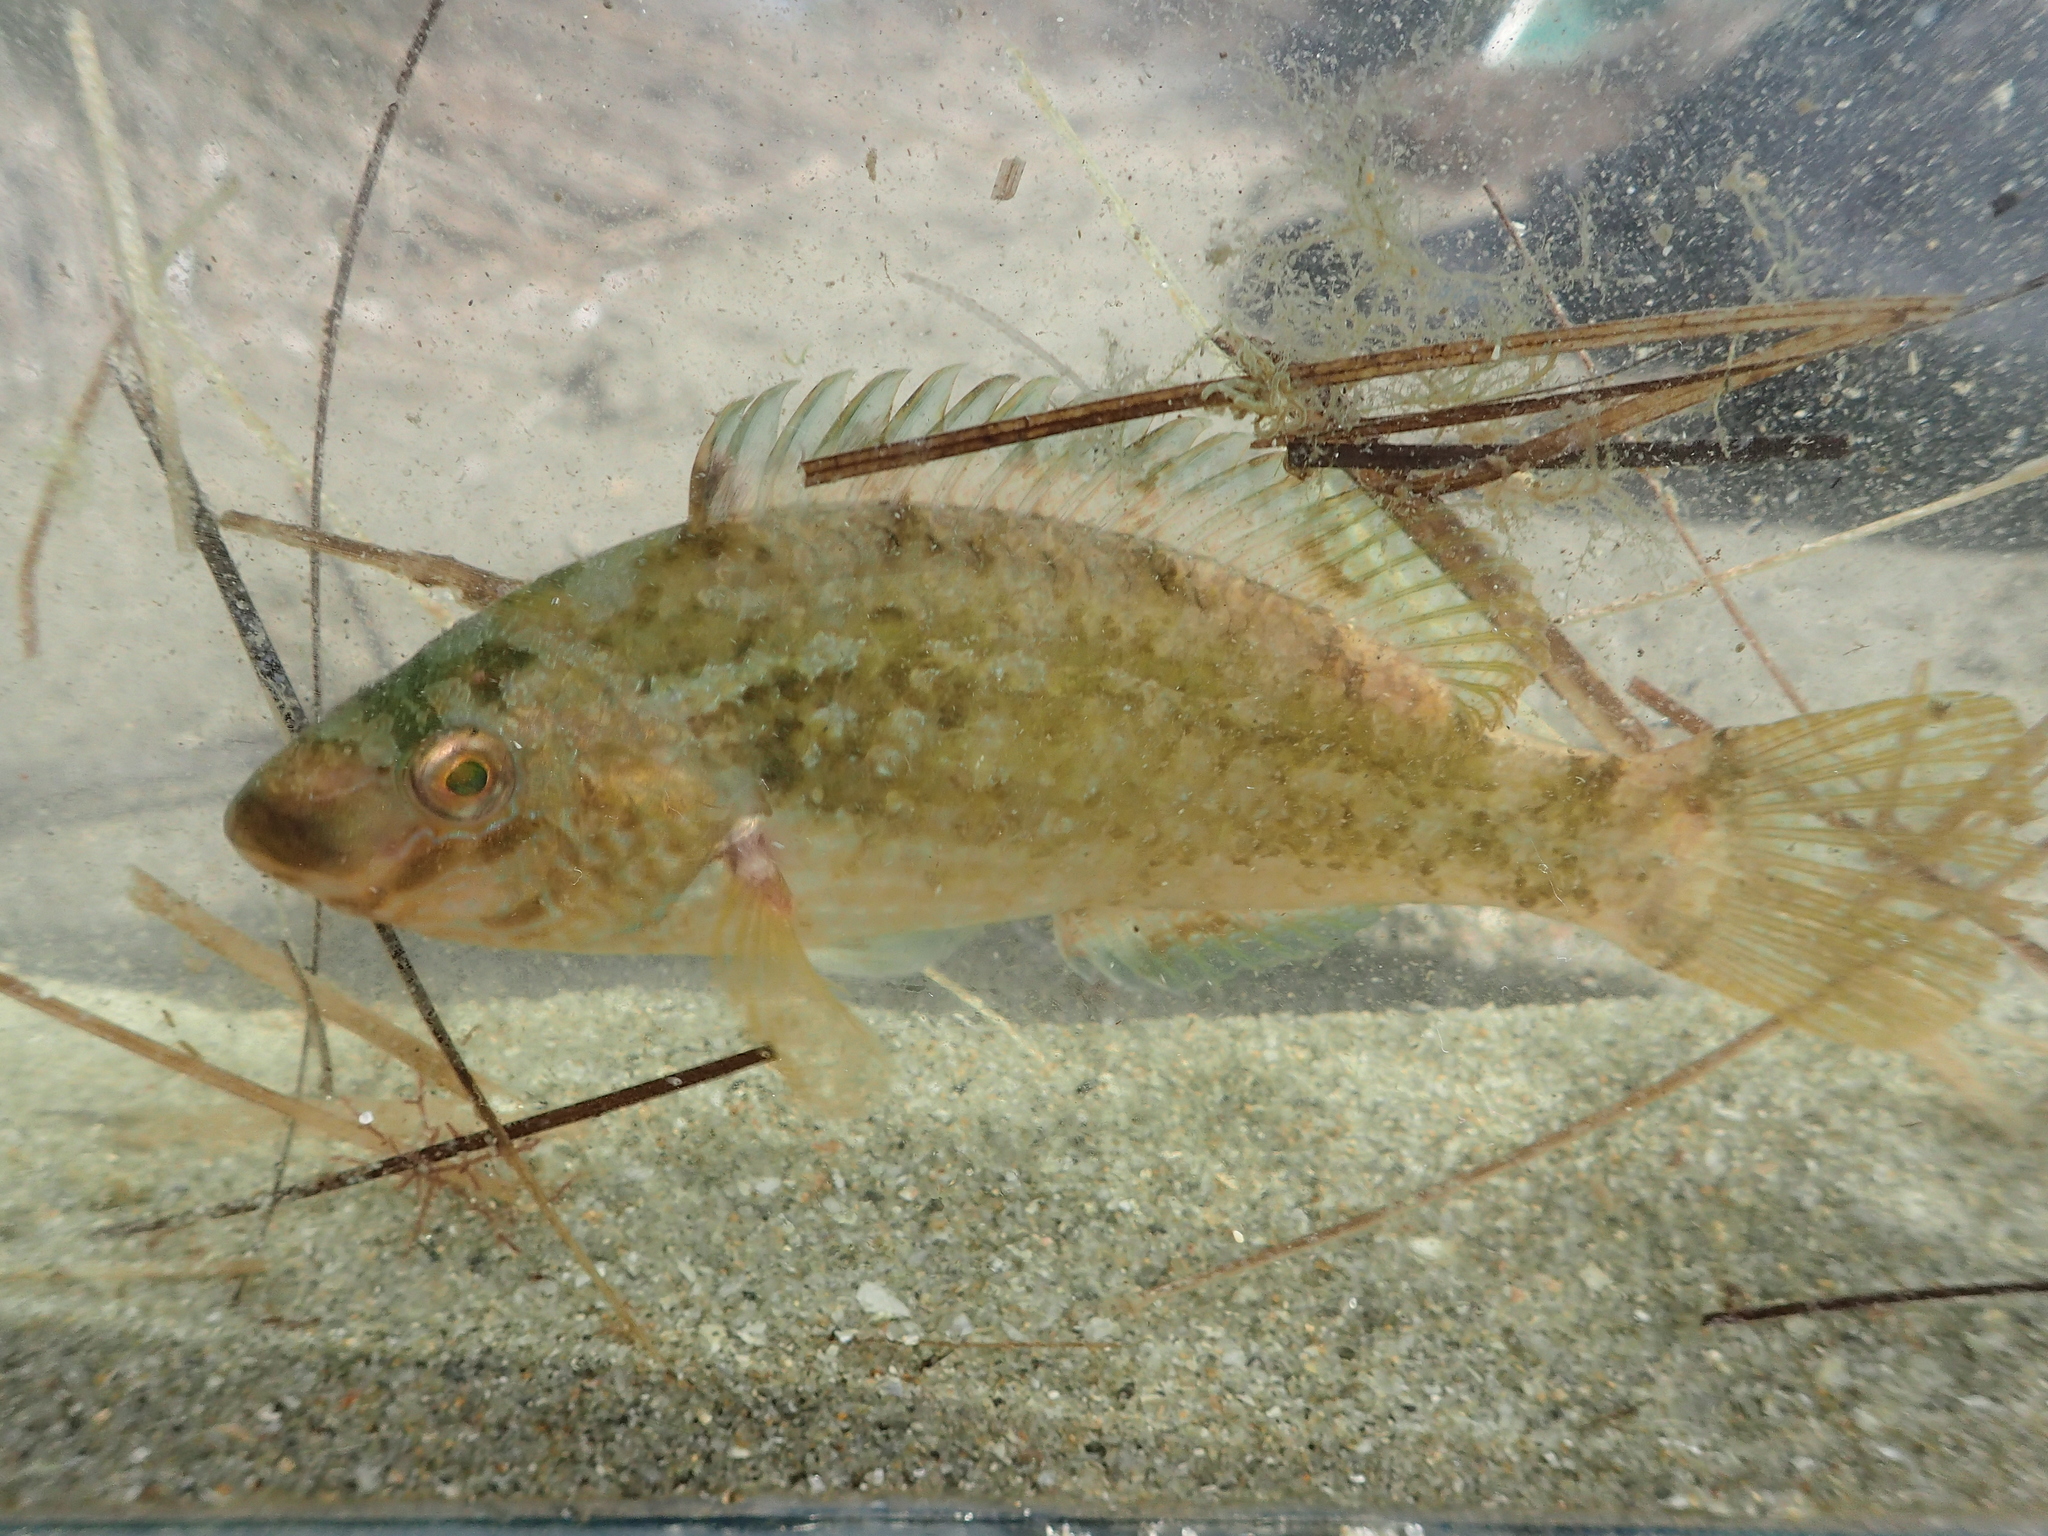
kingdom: Animalia
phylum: Chordata
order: Perciformes
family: Labridae
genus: Symphodus
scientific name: Symphodus cinereus
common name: Grey wrasse
